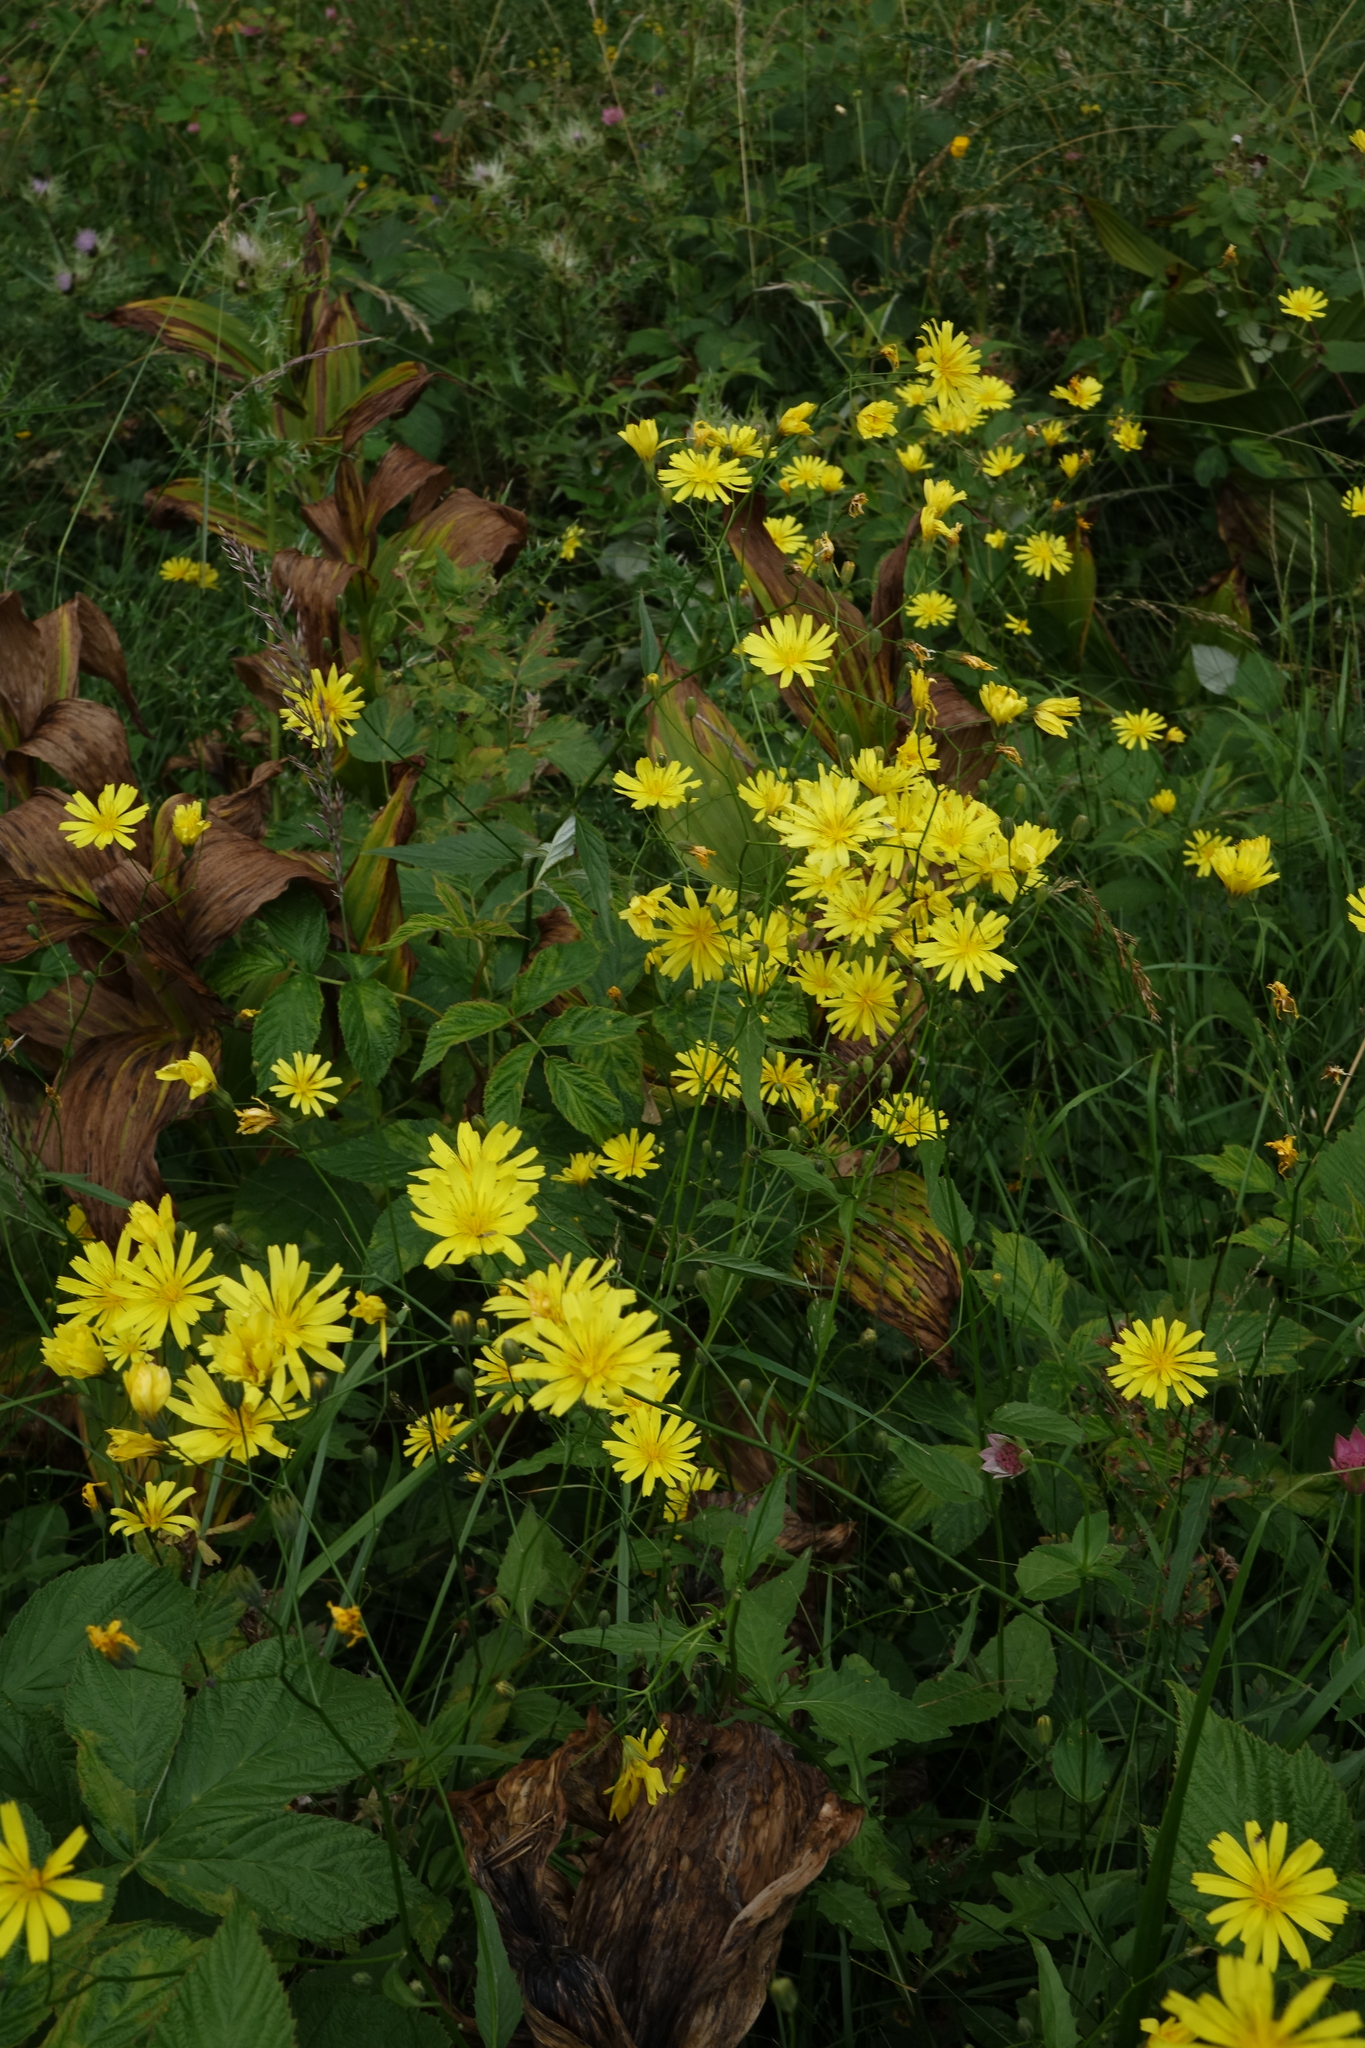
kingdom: Plantae
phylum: Tracheophyta
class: Magnoliopsida
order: Asterales
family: Asteraceae
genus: Lapsana
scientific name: Lapsana communis
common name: Nipplewort
